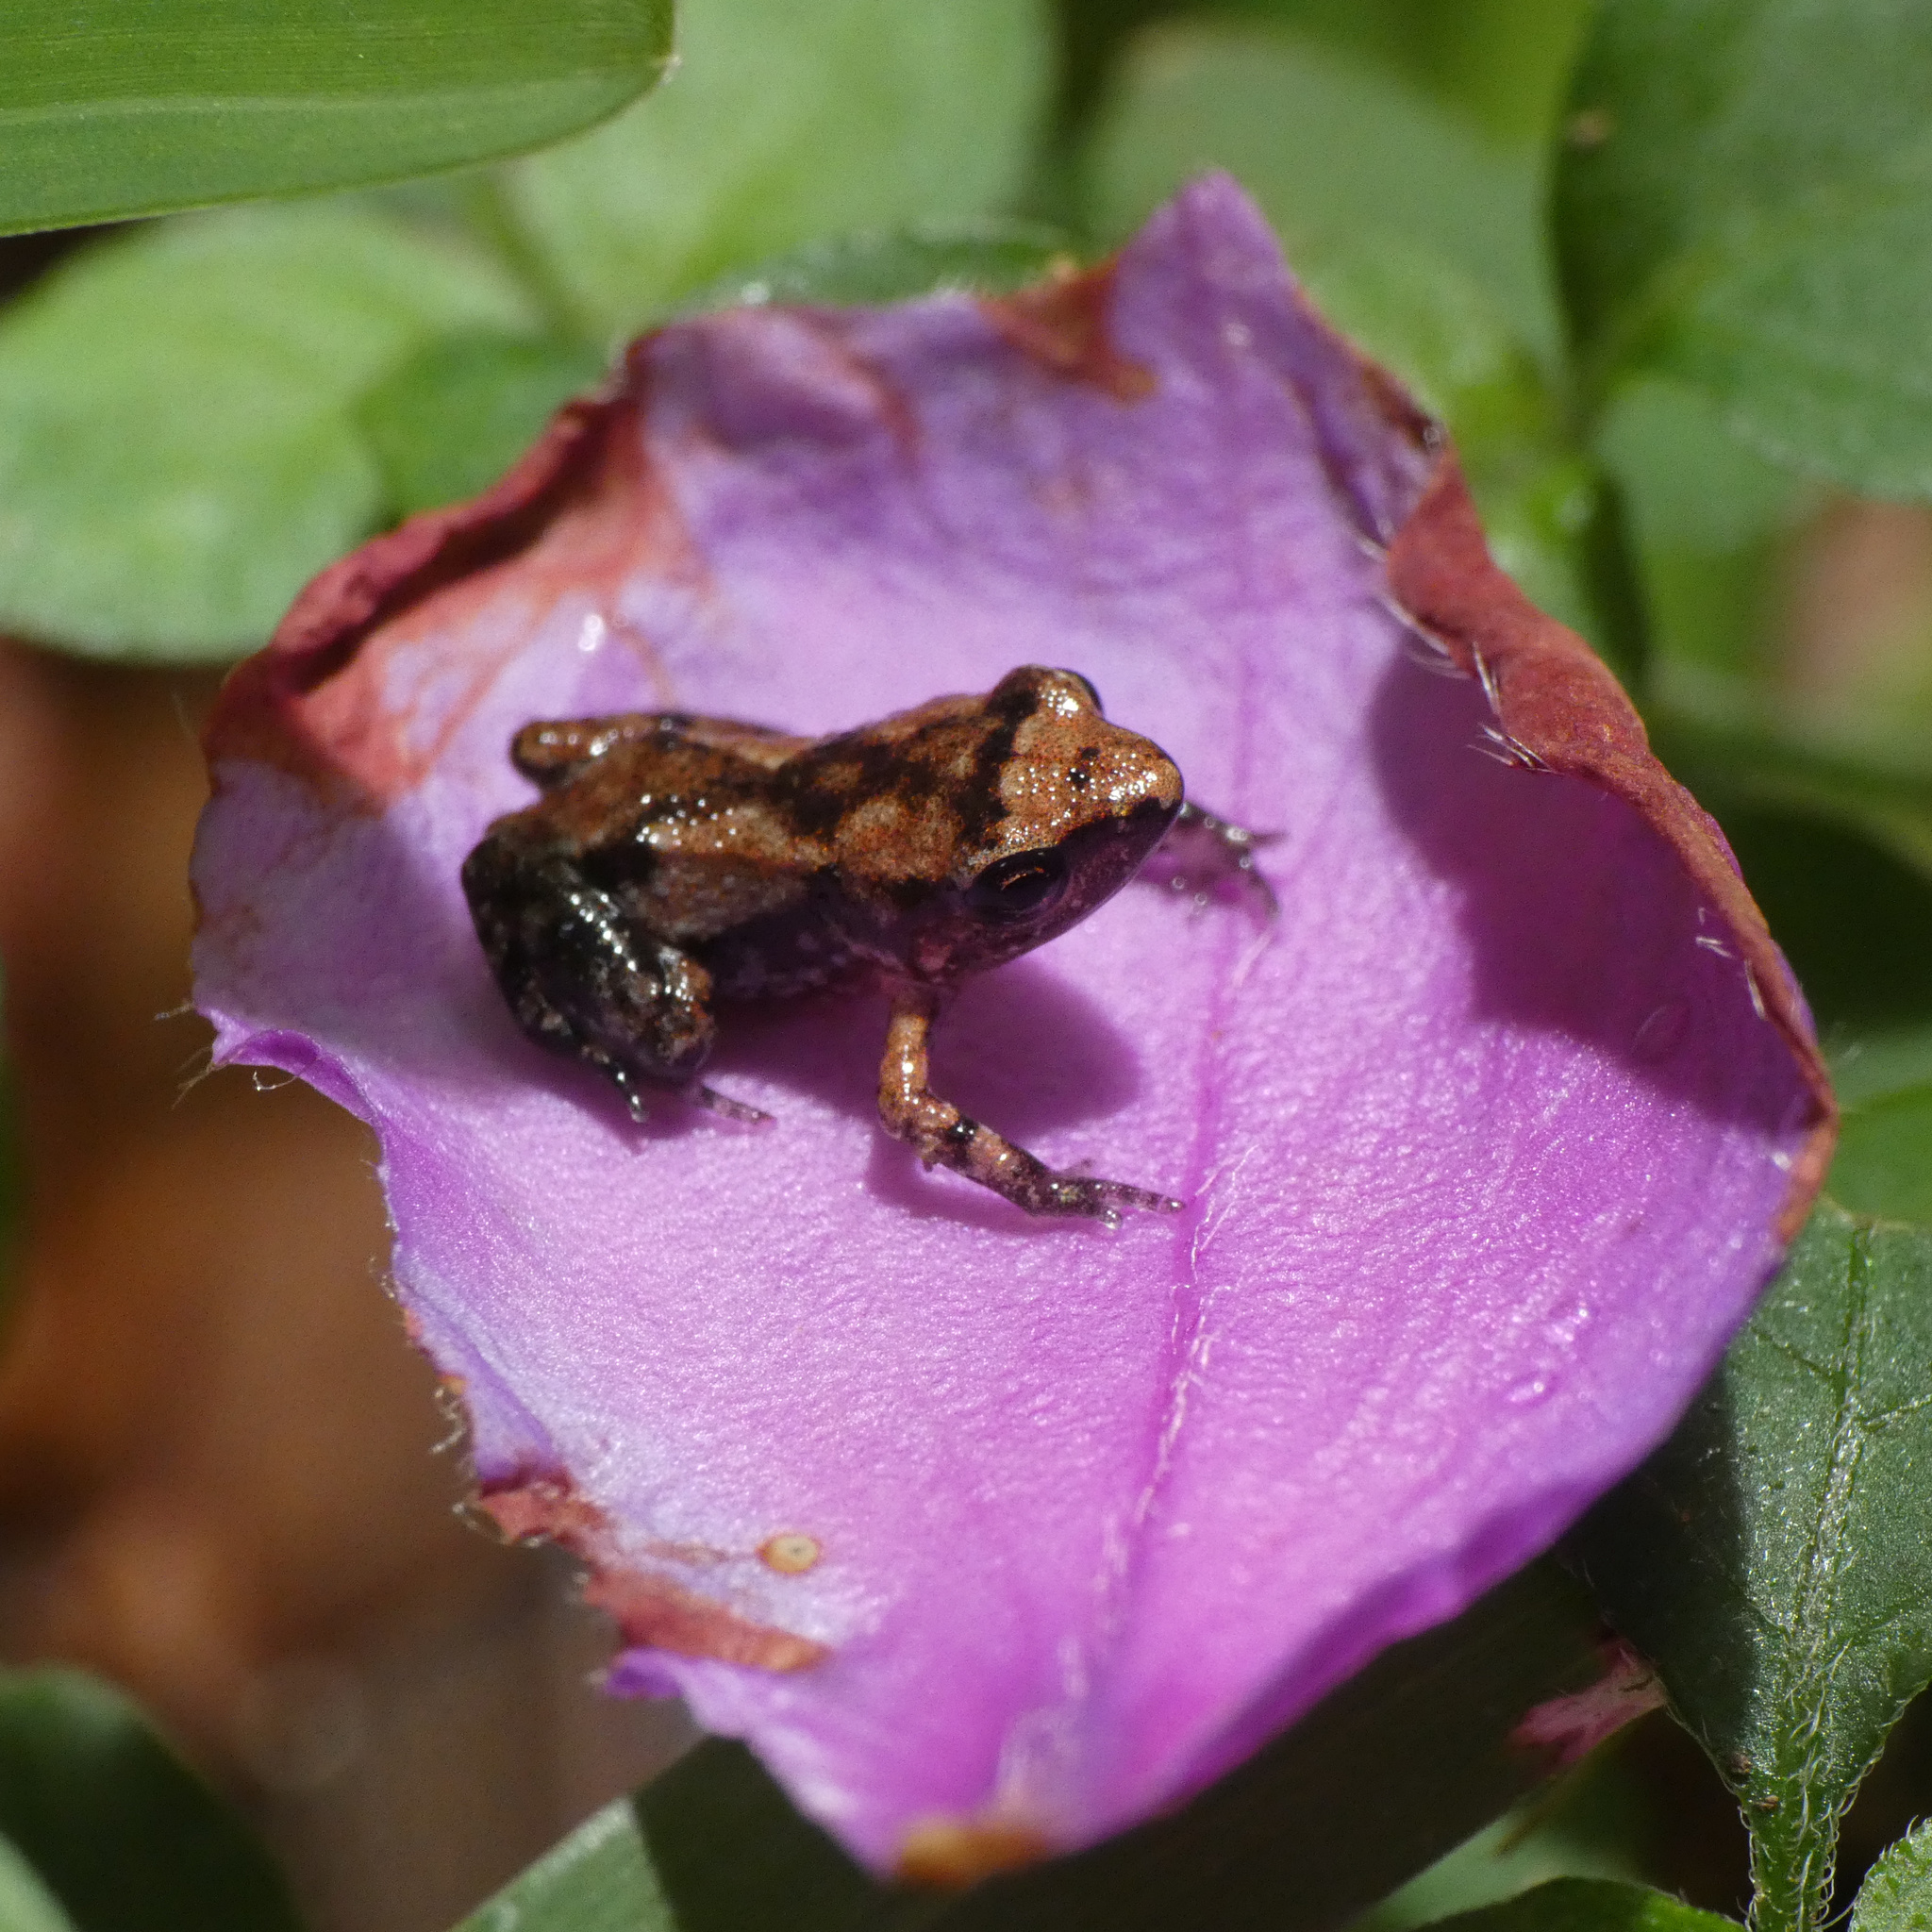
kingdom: Animalia
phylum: Chordata
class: Amphibia
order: Anura
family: Arthroleptidae
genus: Arthroleptis
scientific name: Arthroleptis xenodactyloides
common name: Chirinda screeching frog
